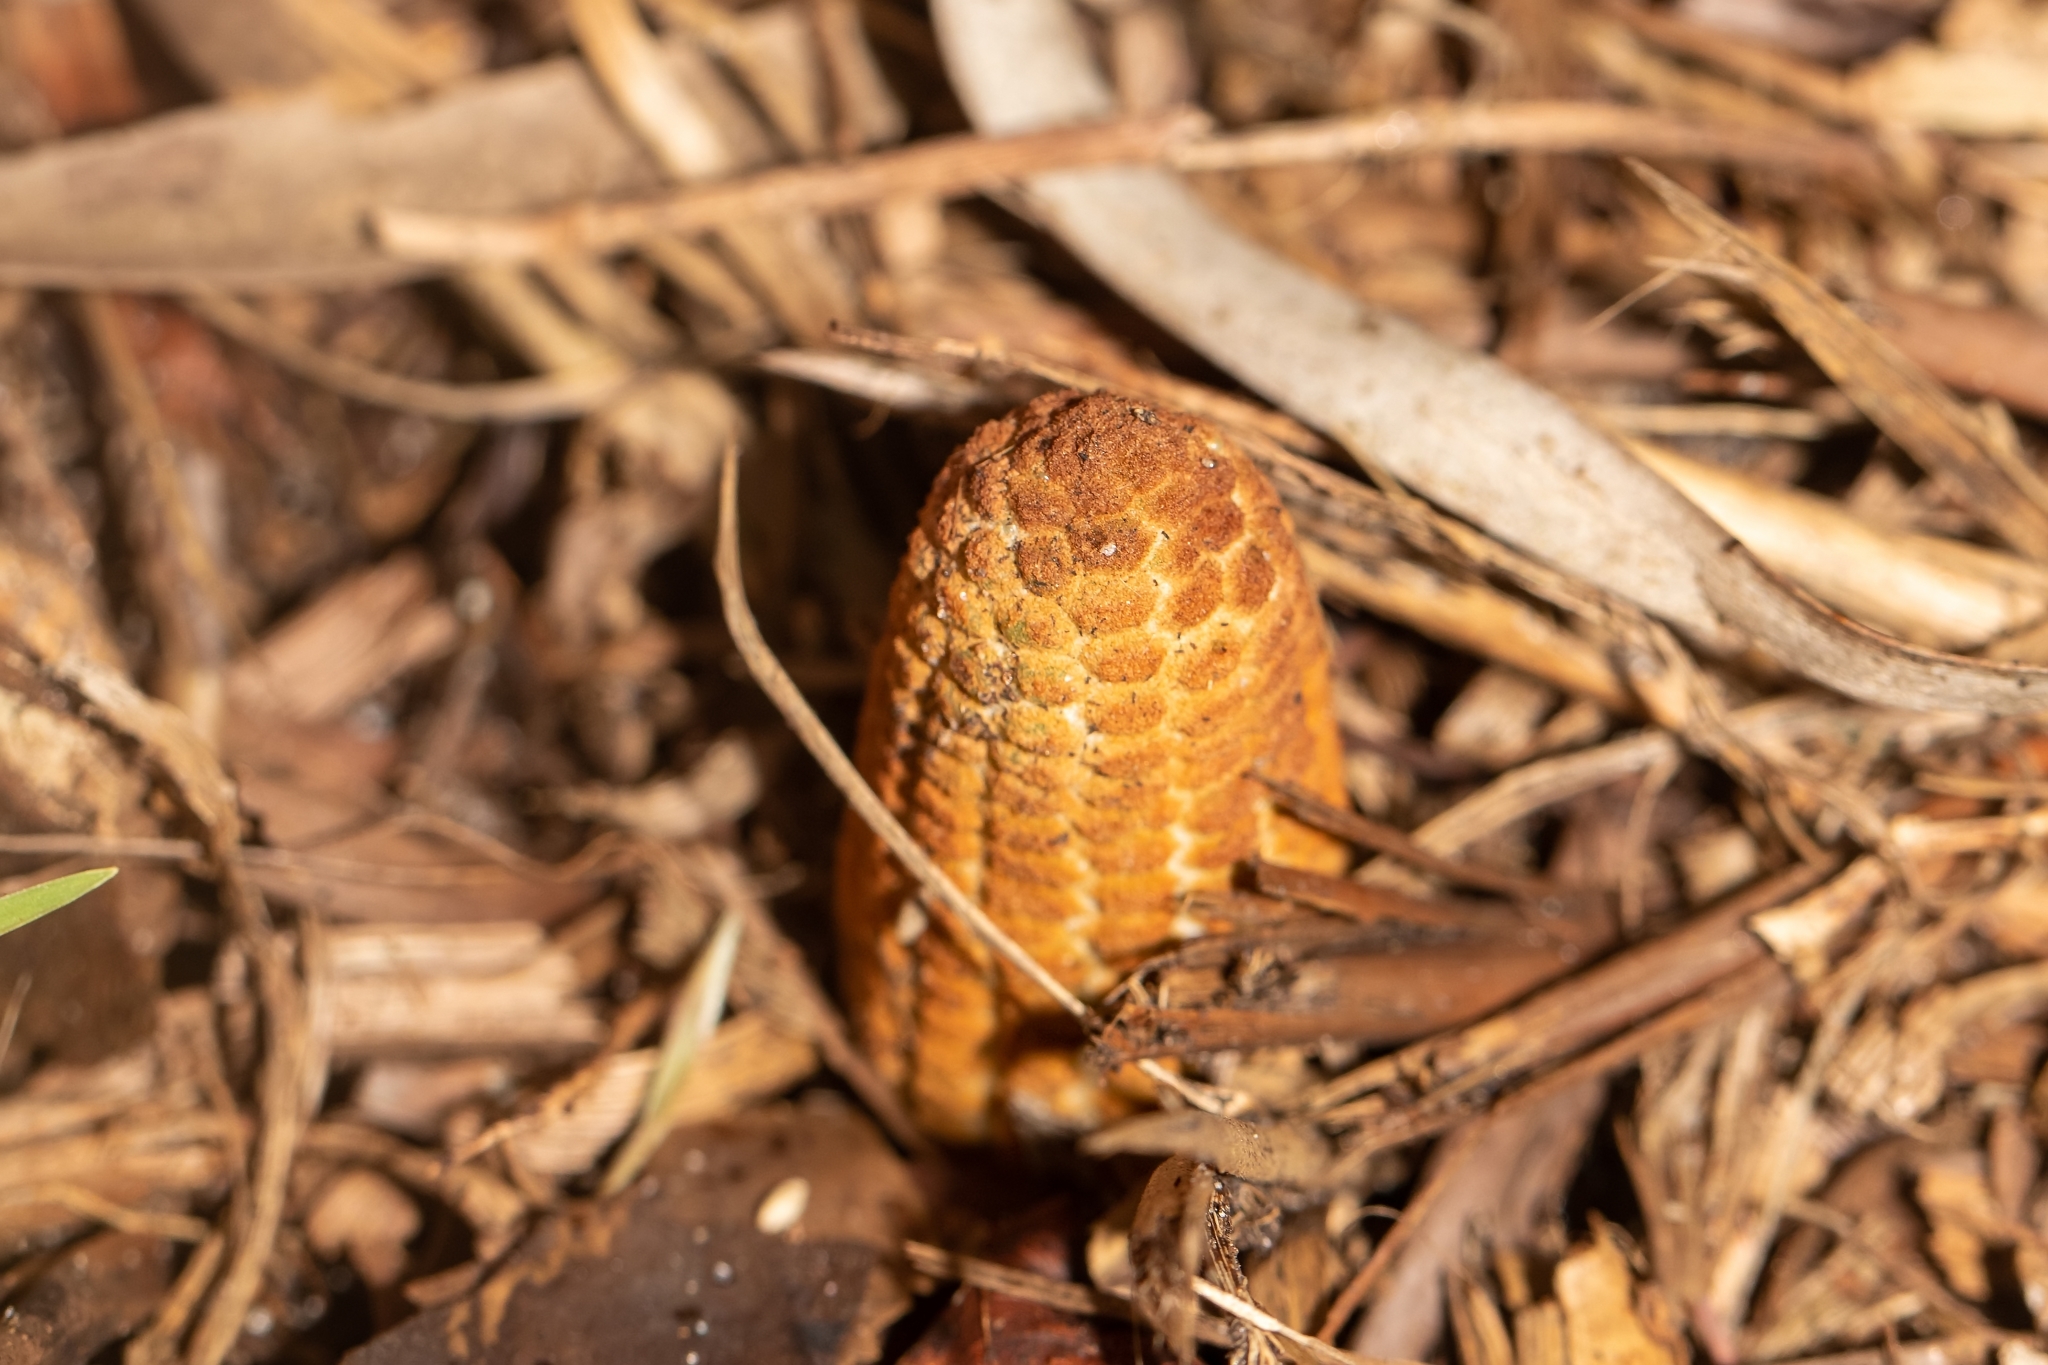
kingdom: Plantae
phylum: Tracheophyta
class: Cycadopsida
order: Cycadales
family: Zamiaceae
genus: Zamia
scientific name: Zamia integrifolia
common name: Florida arrowroot
